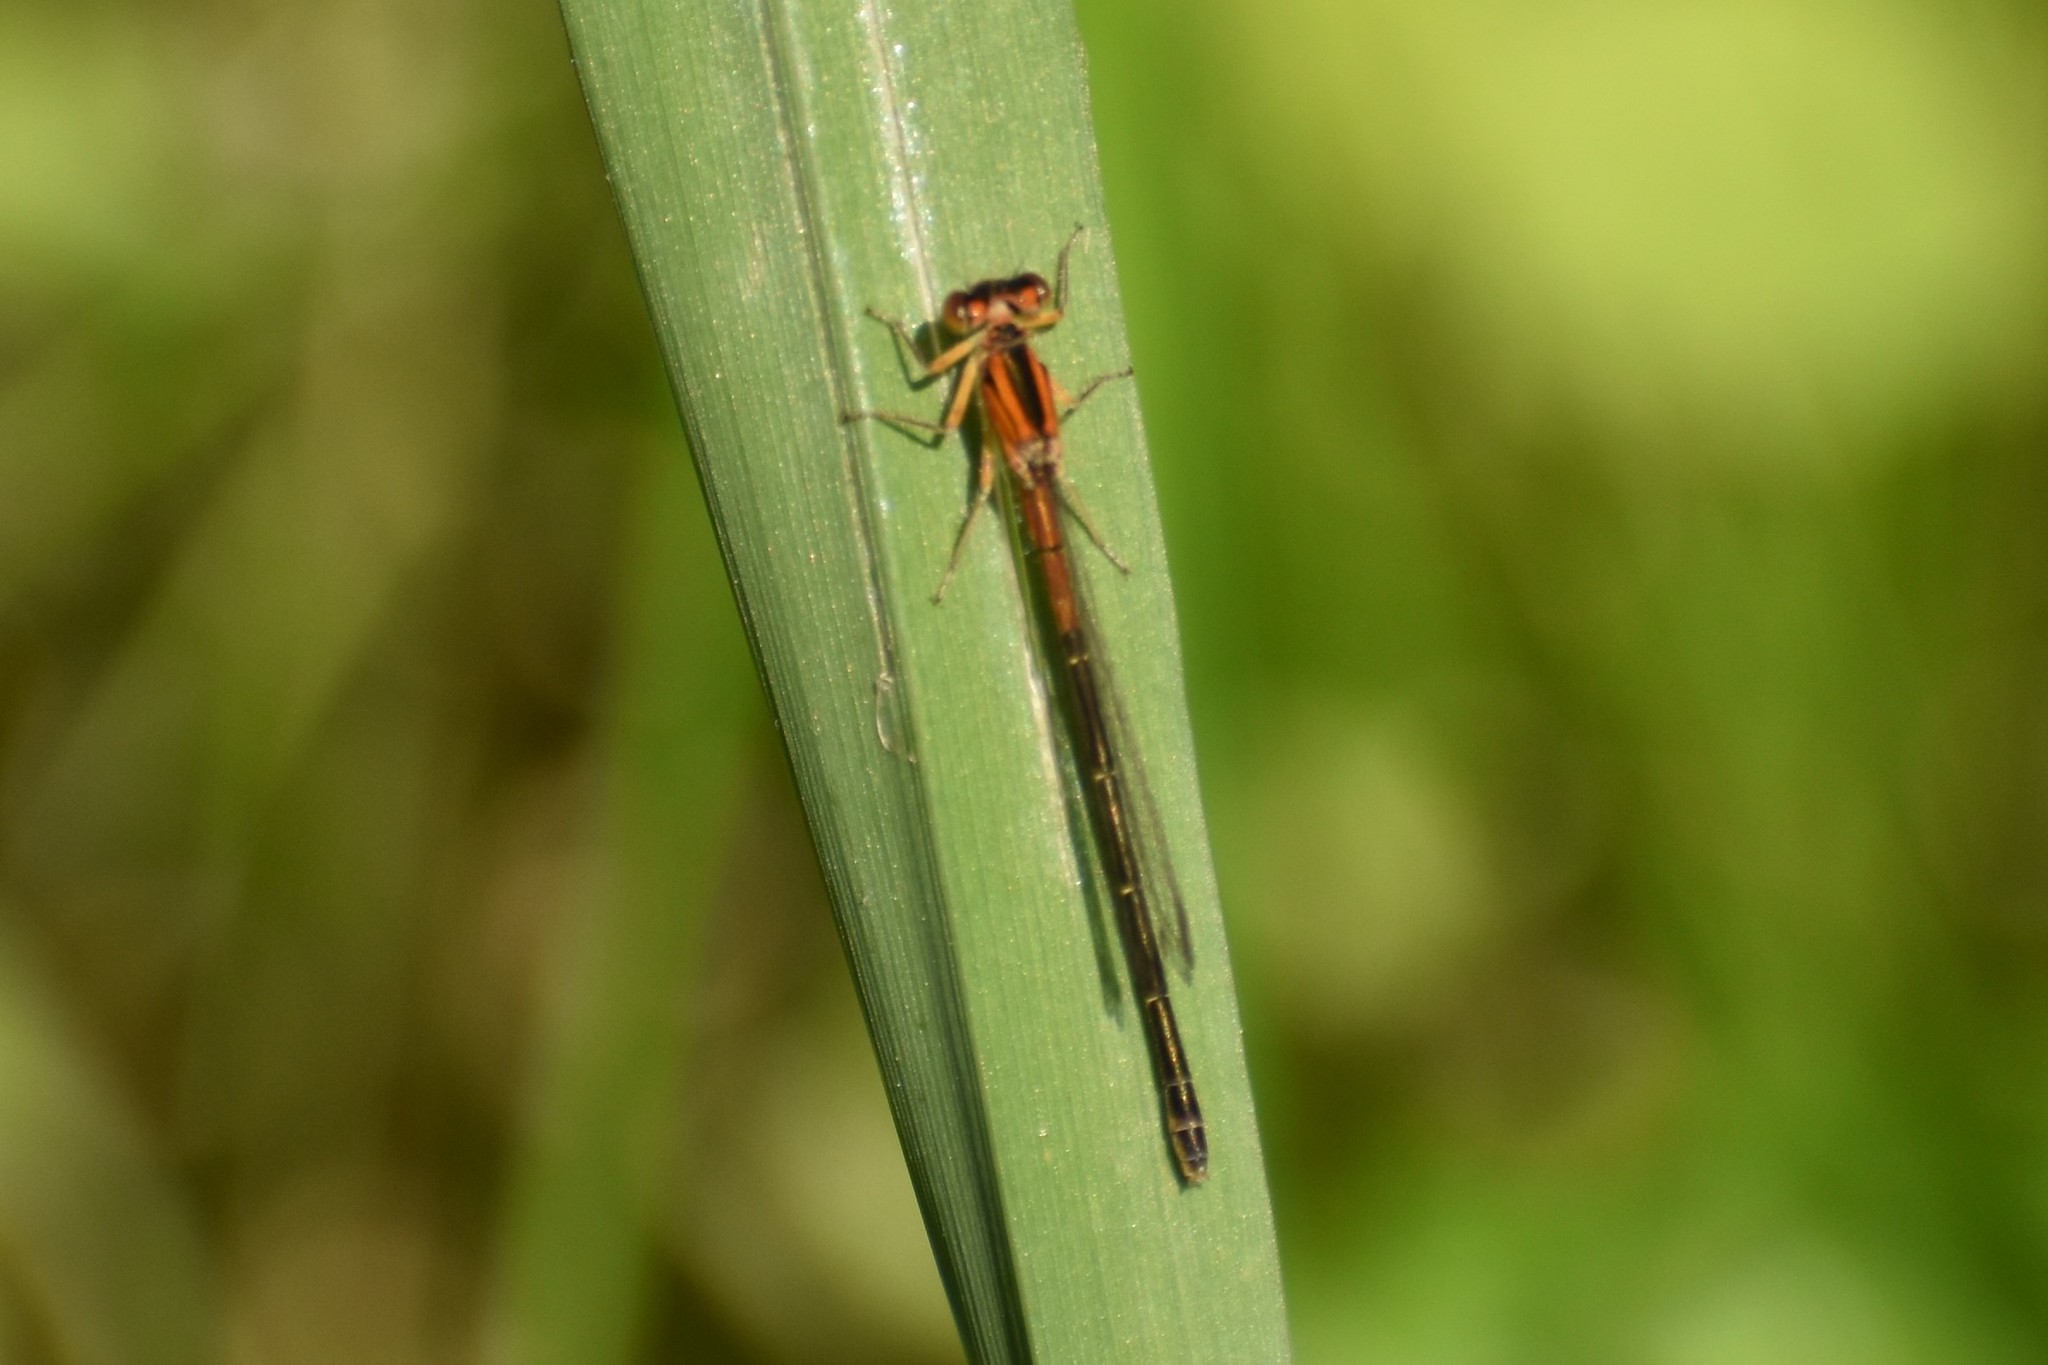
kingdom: Animalia
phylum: Arthropoda
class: Insecta
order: Odonata
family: Coenagrionidae
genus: Ischnura
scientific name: Ischnura verticalis
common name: Eastern forktail
